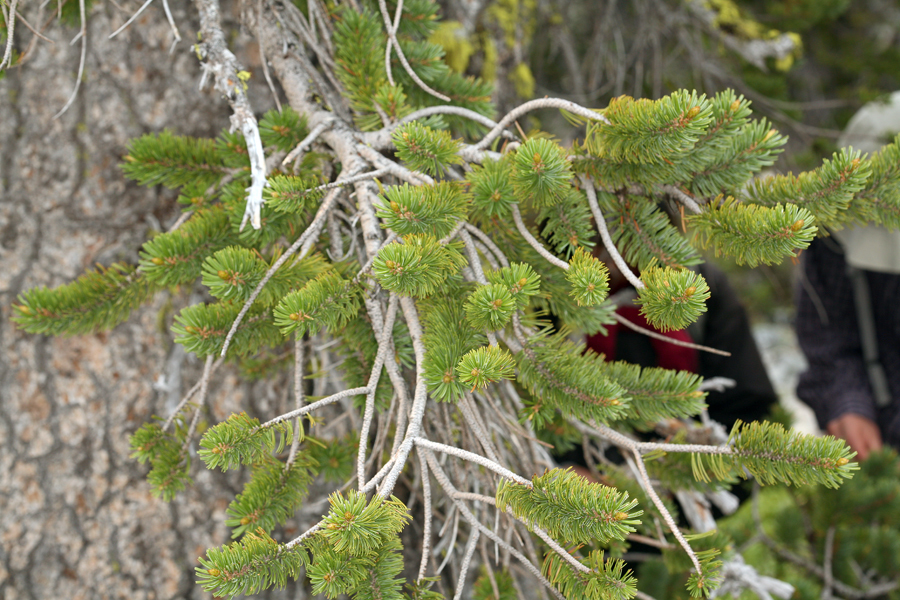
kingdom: Plantae
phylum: Tracheophyta
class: Pinopsida
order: Pinales
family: Pinaceae
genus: Pinus
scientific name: Pinus balfouriana
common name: Foxtail pine
